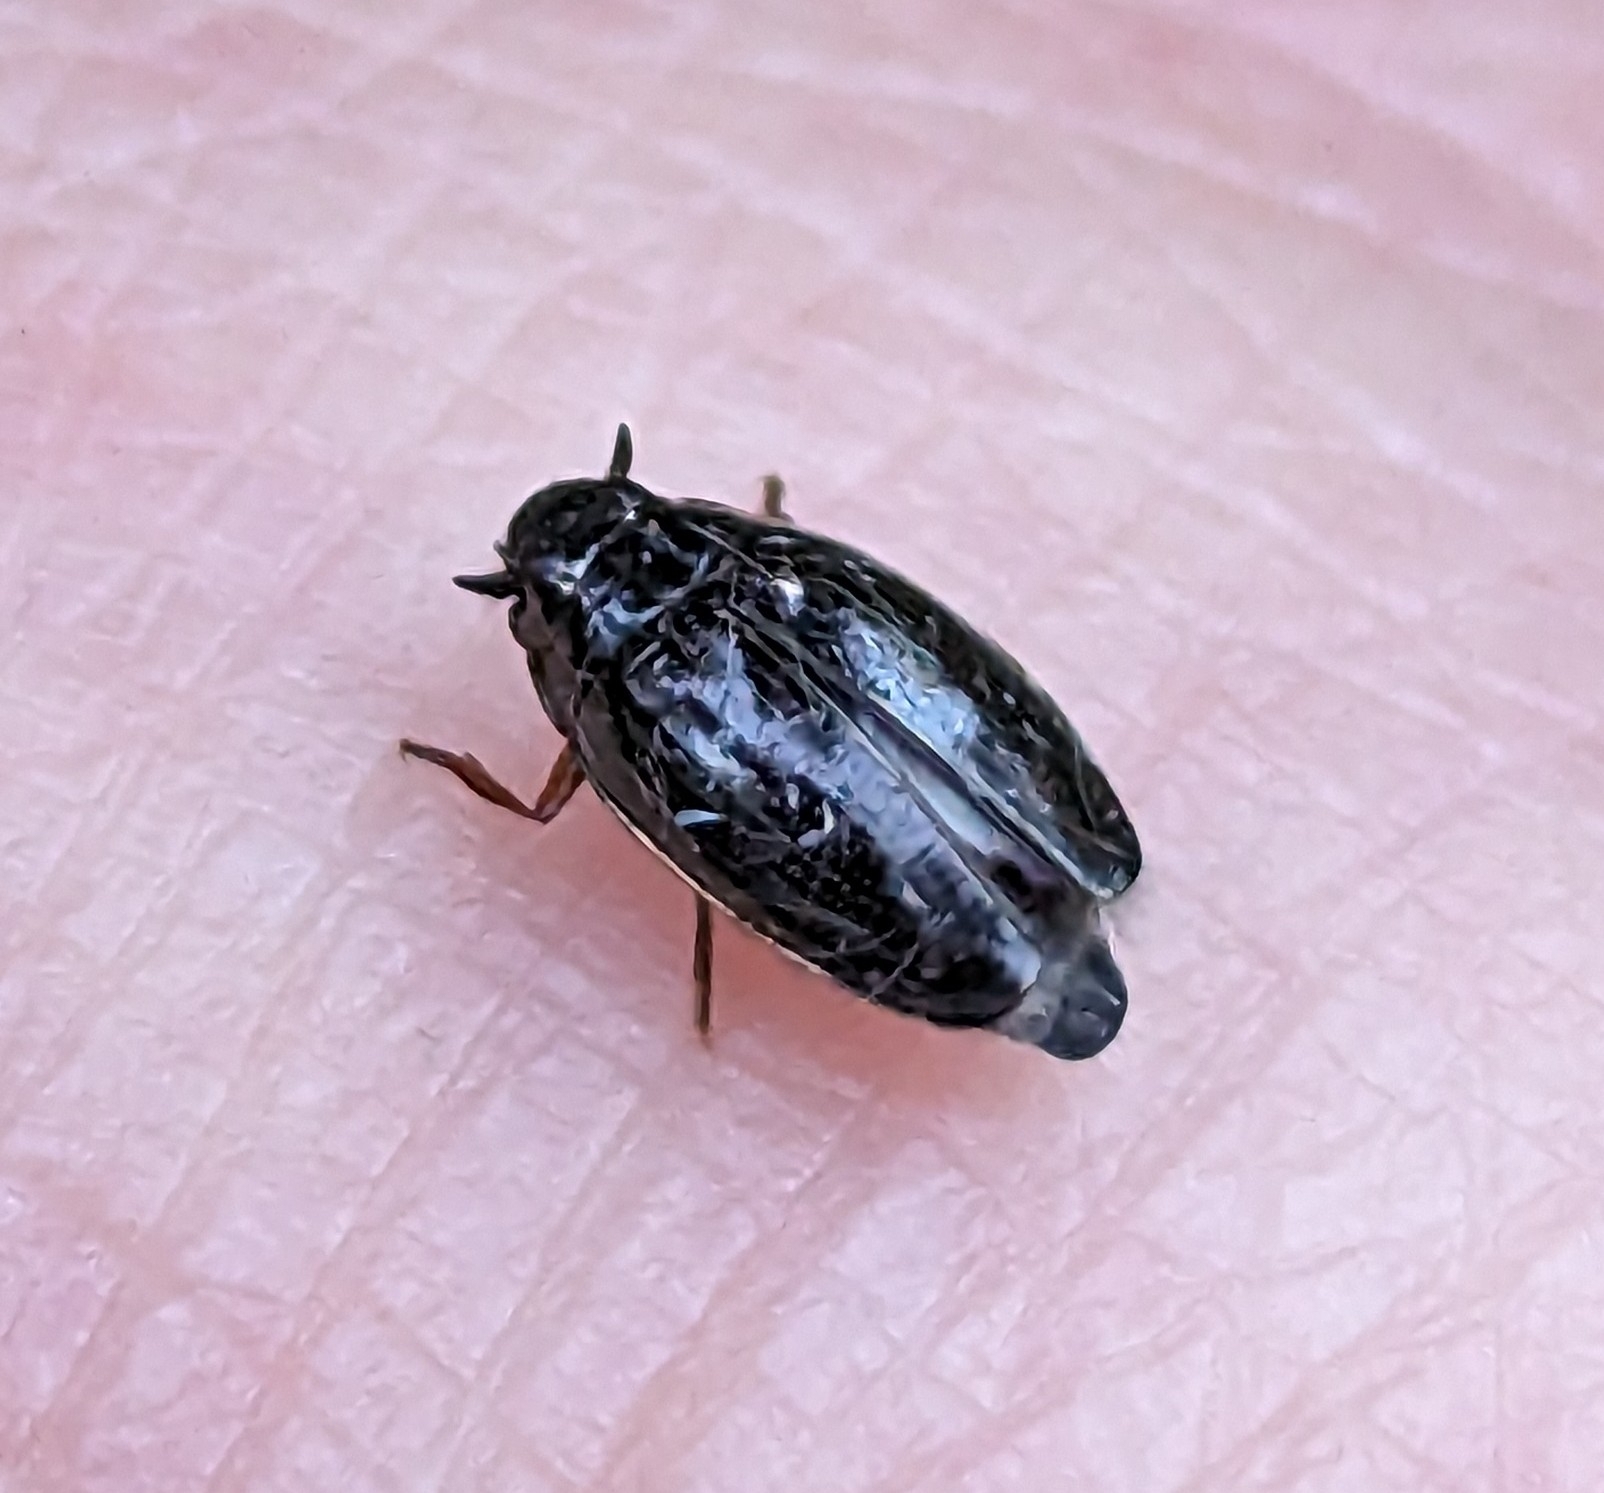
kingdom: Animalia
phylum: Arthropoda
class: Insecta
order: Coleoptera
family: Gyrinidae
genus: Gyrinus
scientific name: Gyrinus
